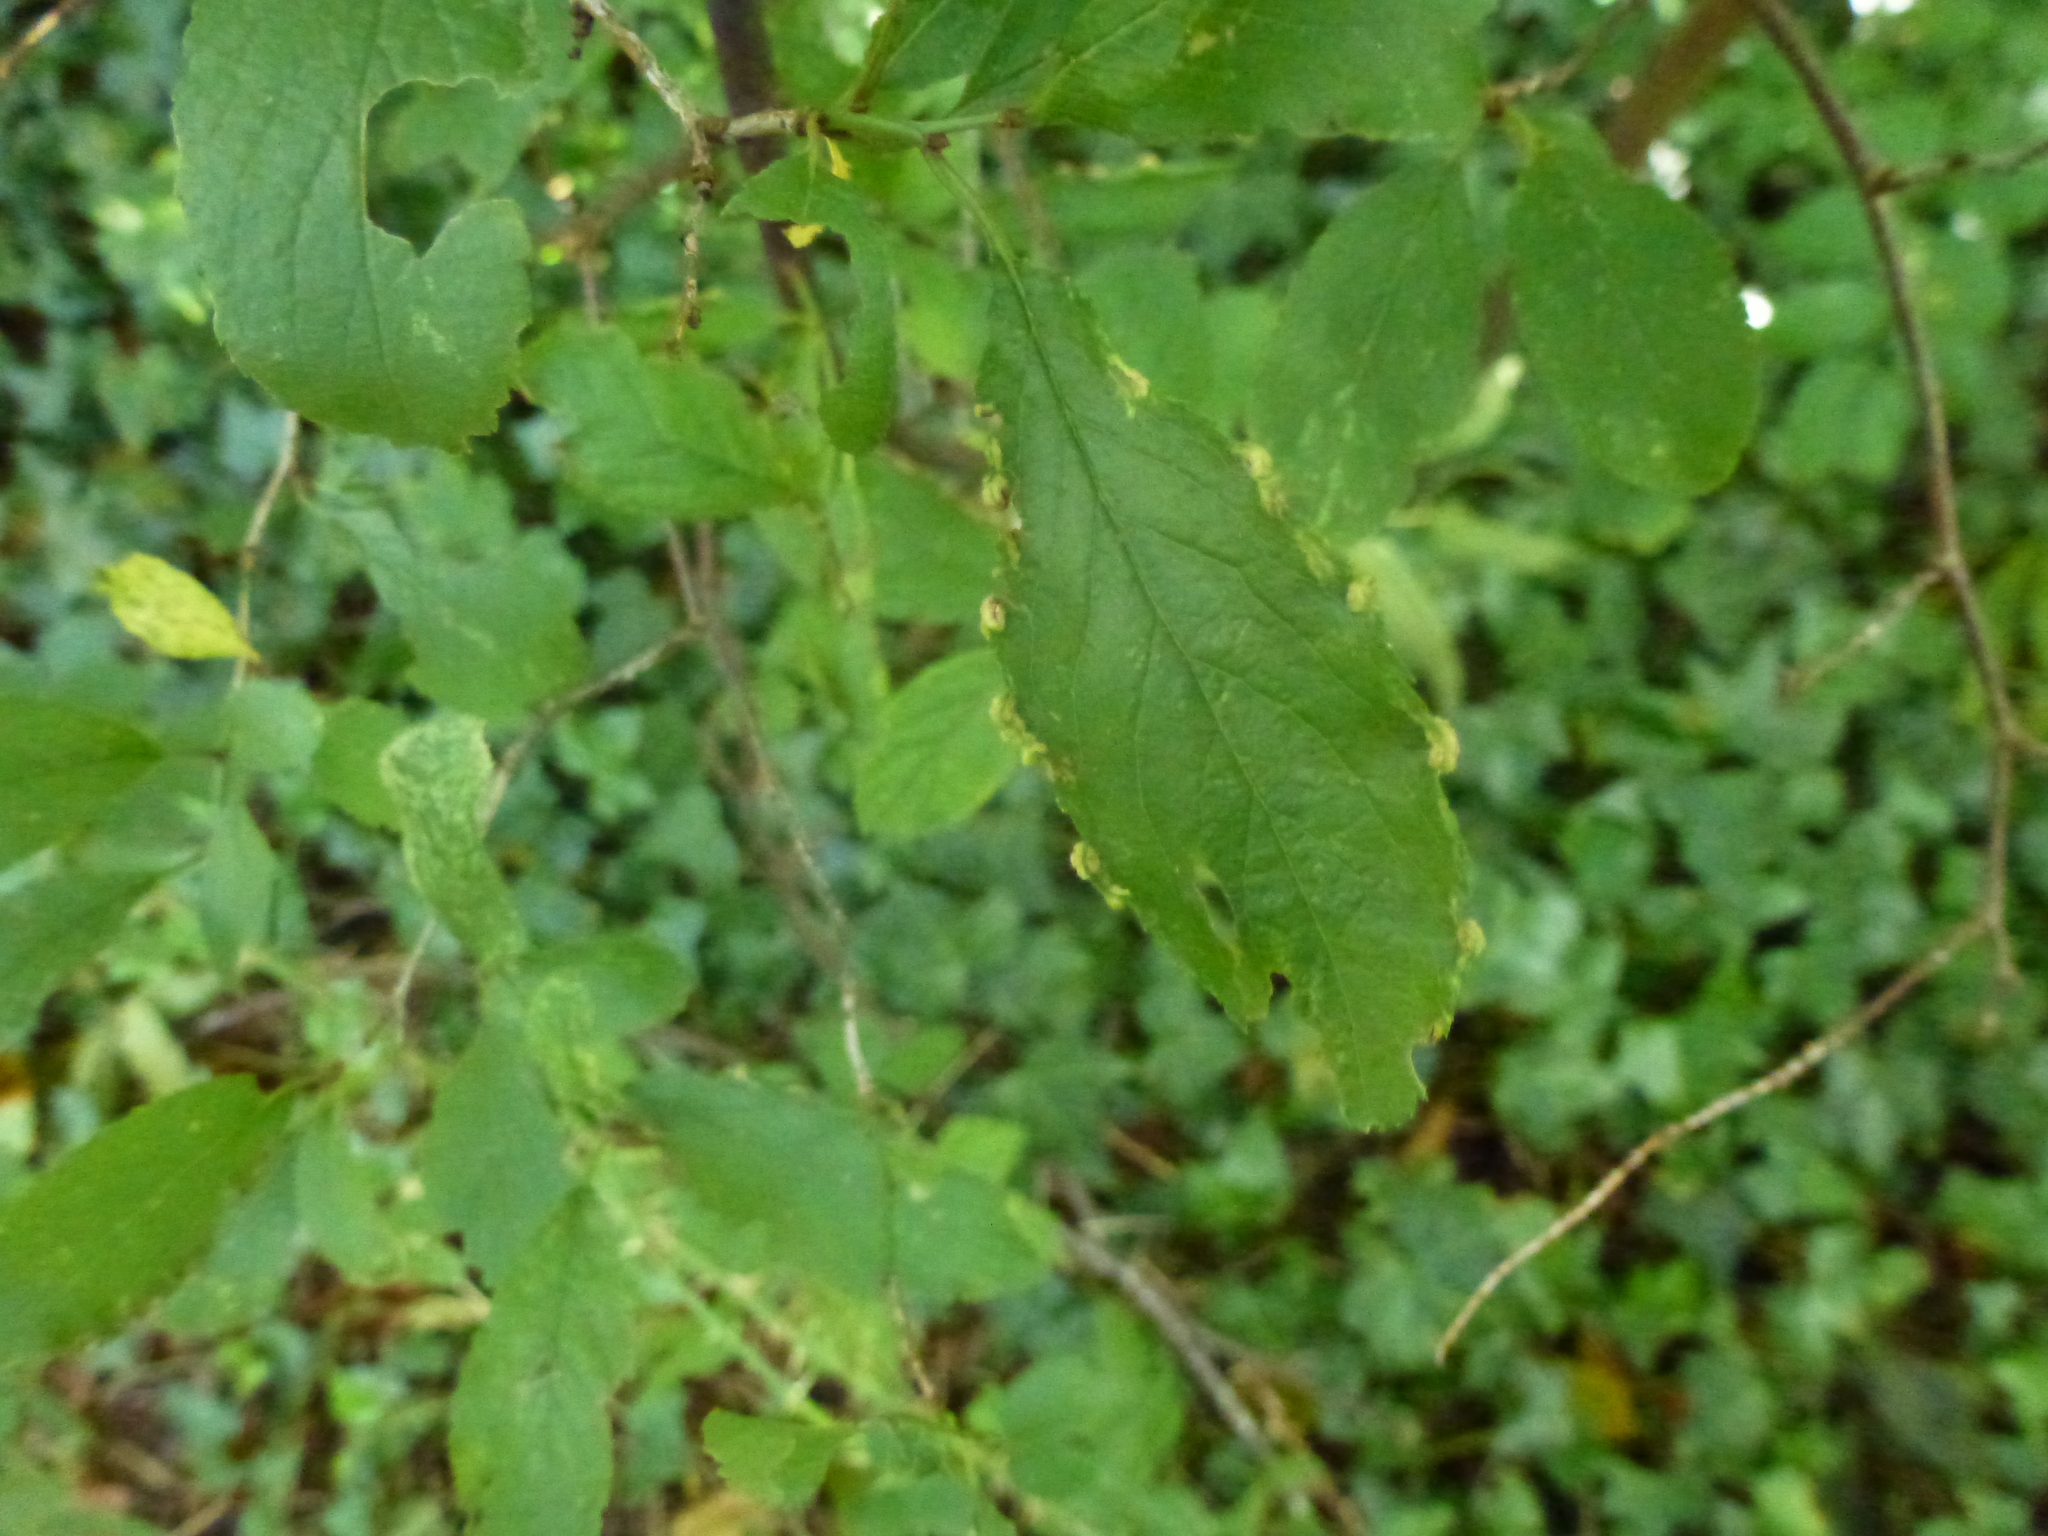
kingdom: Animalia
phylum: Arthropoda
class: Arachnida
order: Trombidiformes
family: Eriophyidae
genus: Eriophyes
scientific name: Eriophyes similis
